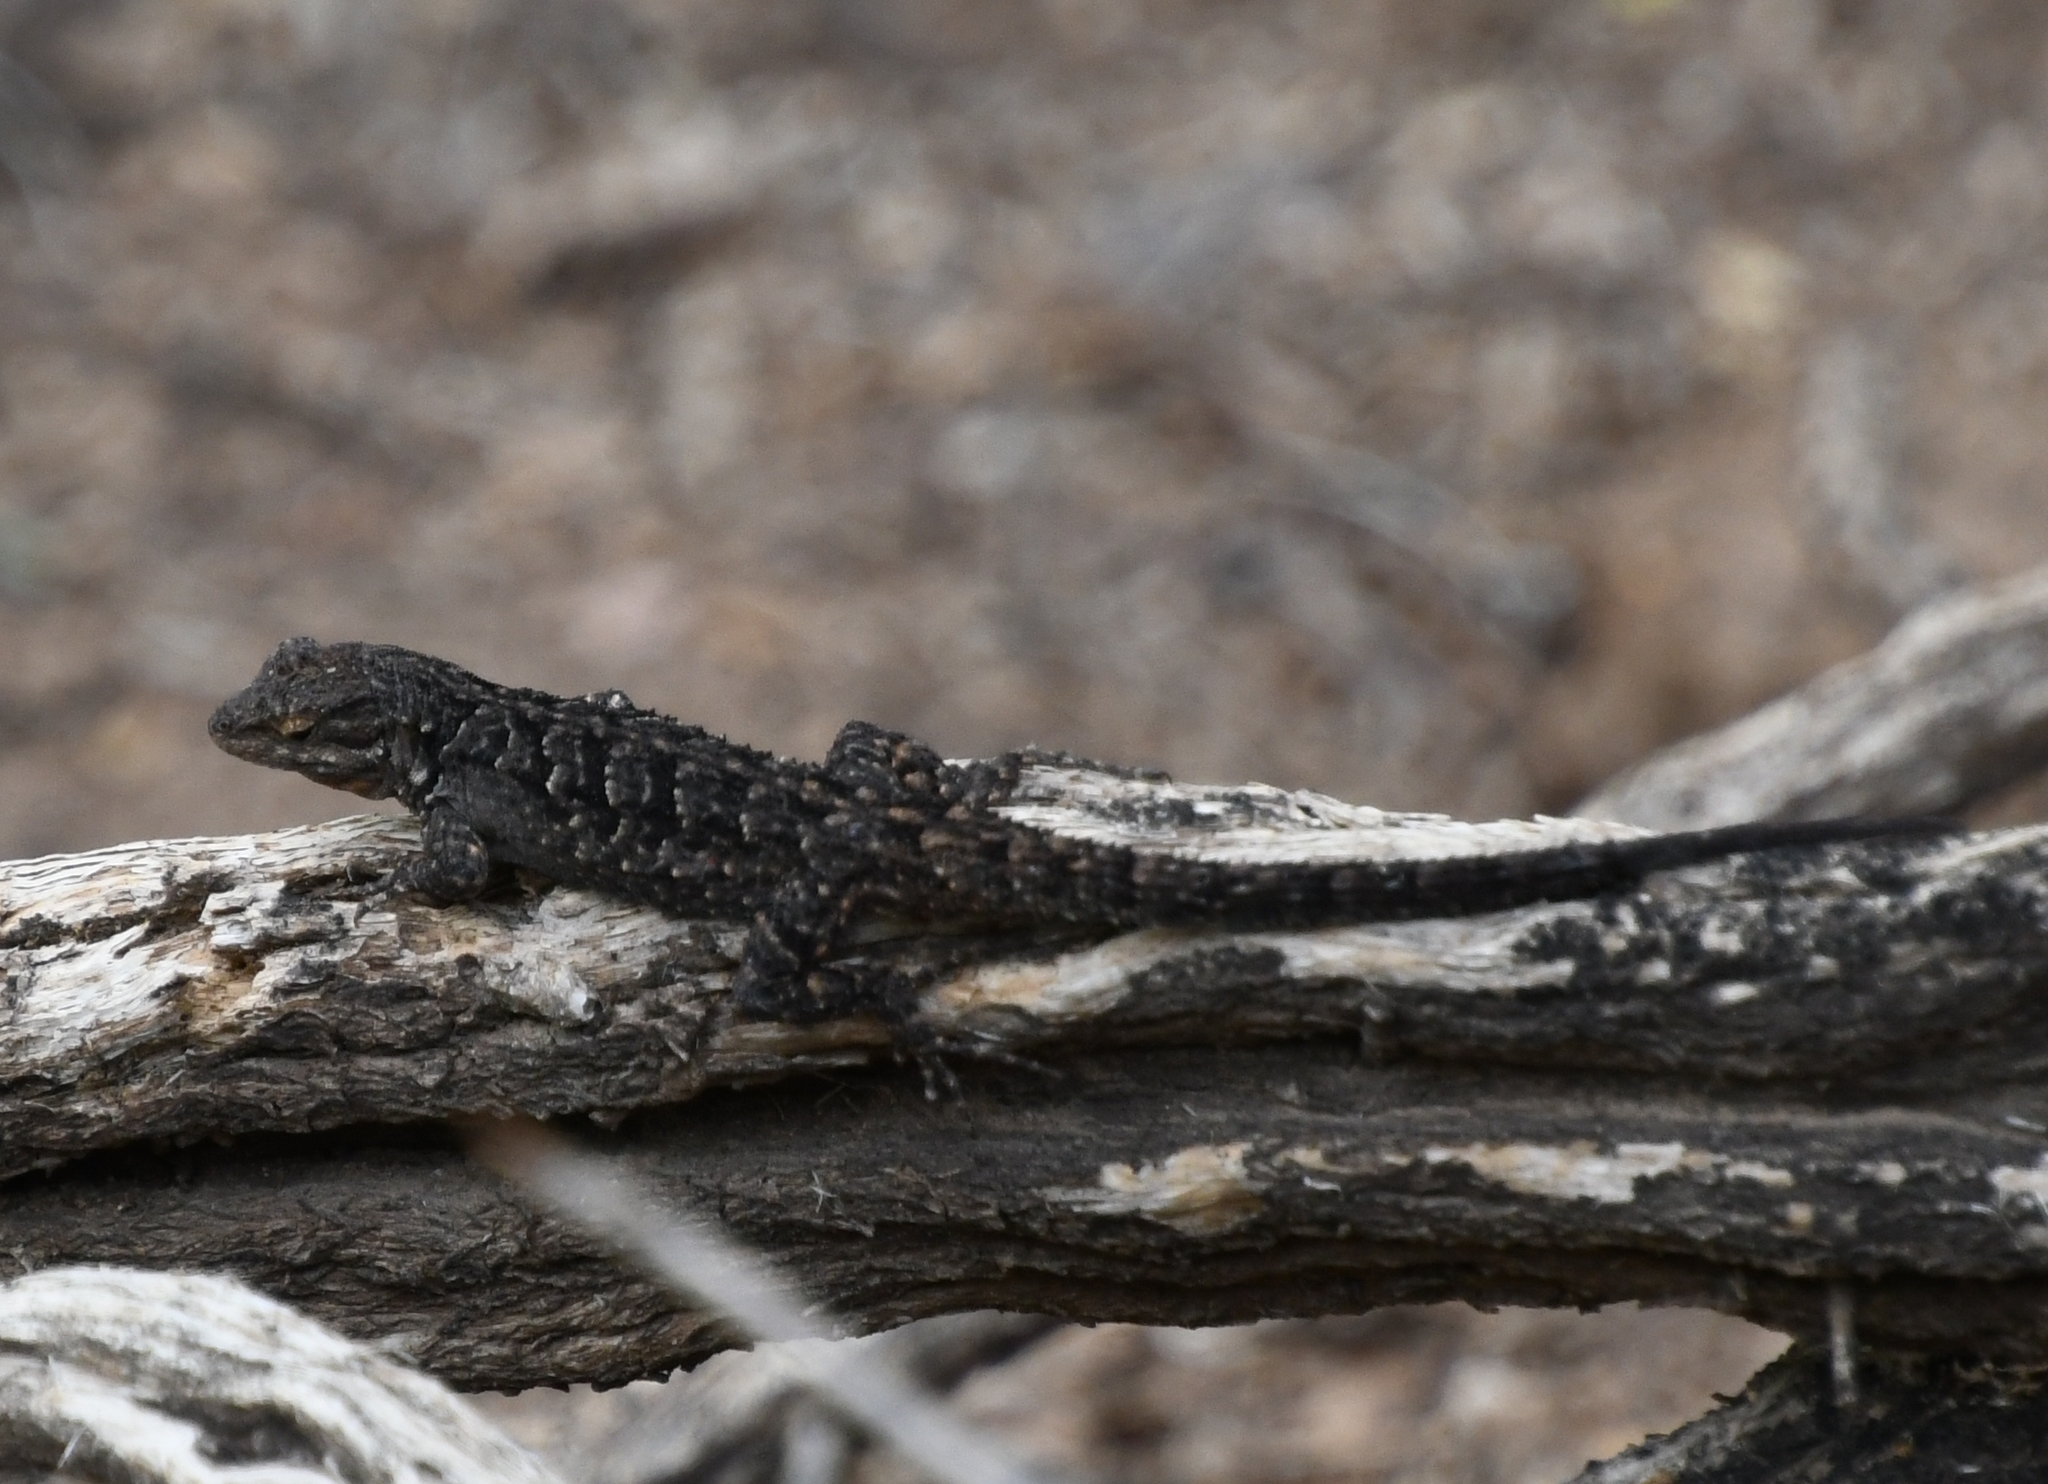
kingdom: Animalia
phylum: Chordata
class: Squamata
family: Phrynosomatidae
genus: Urosaurus
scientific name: Urosaurus ornatus
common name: Ornate tree lizard
